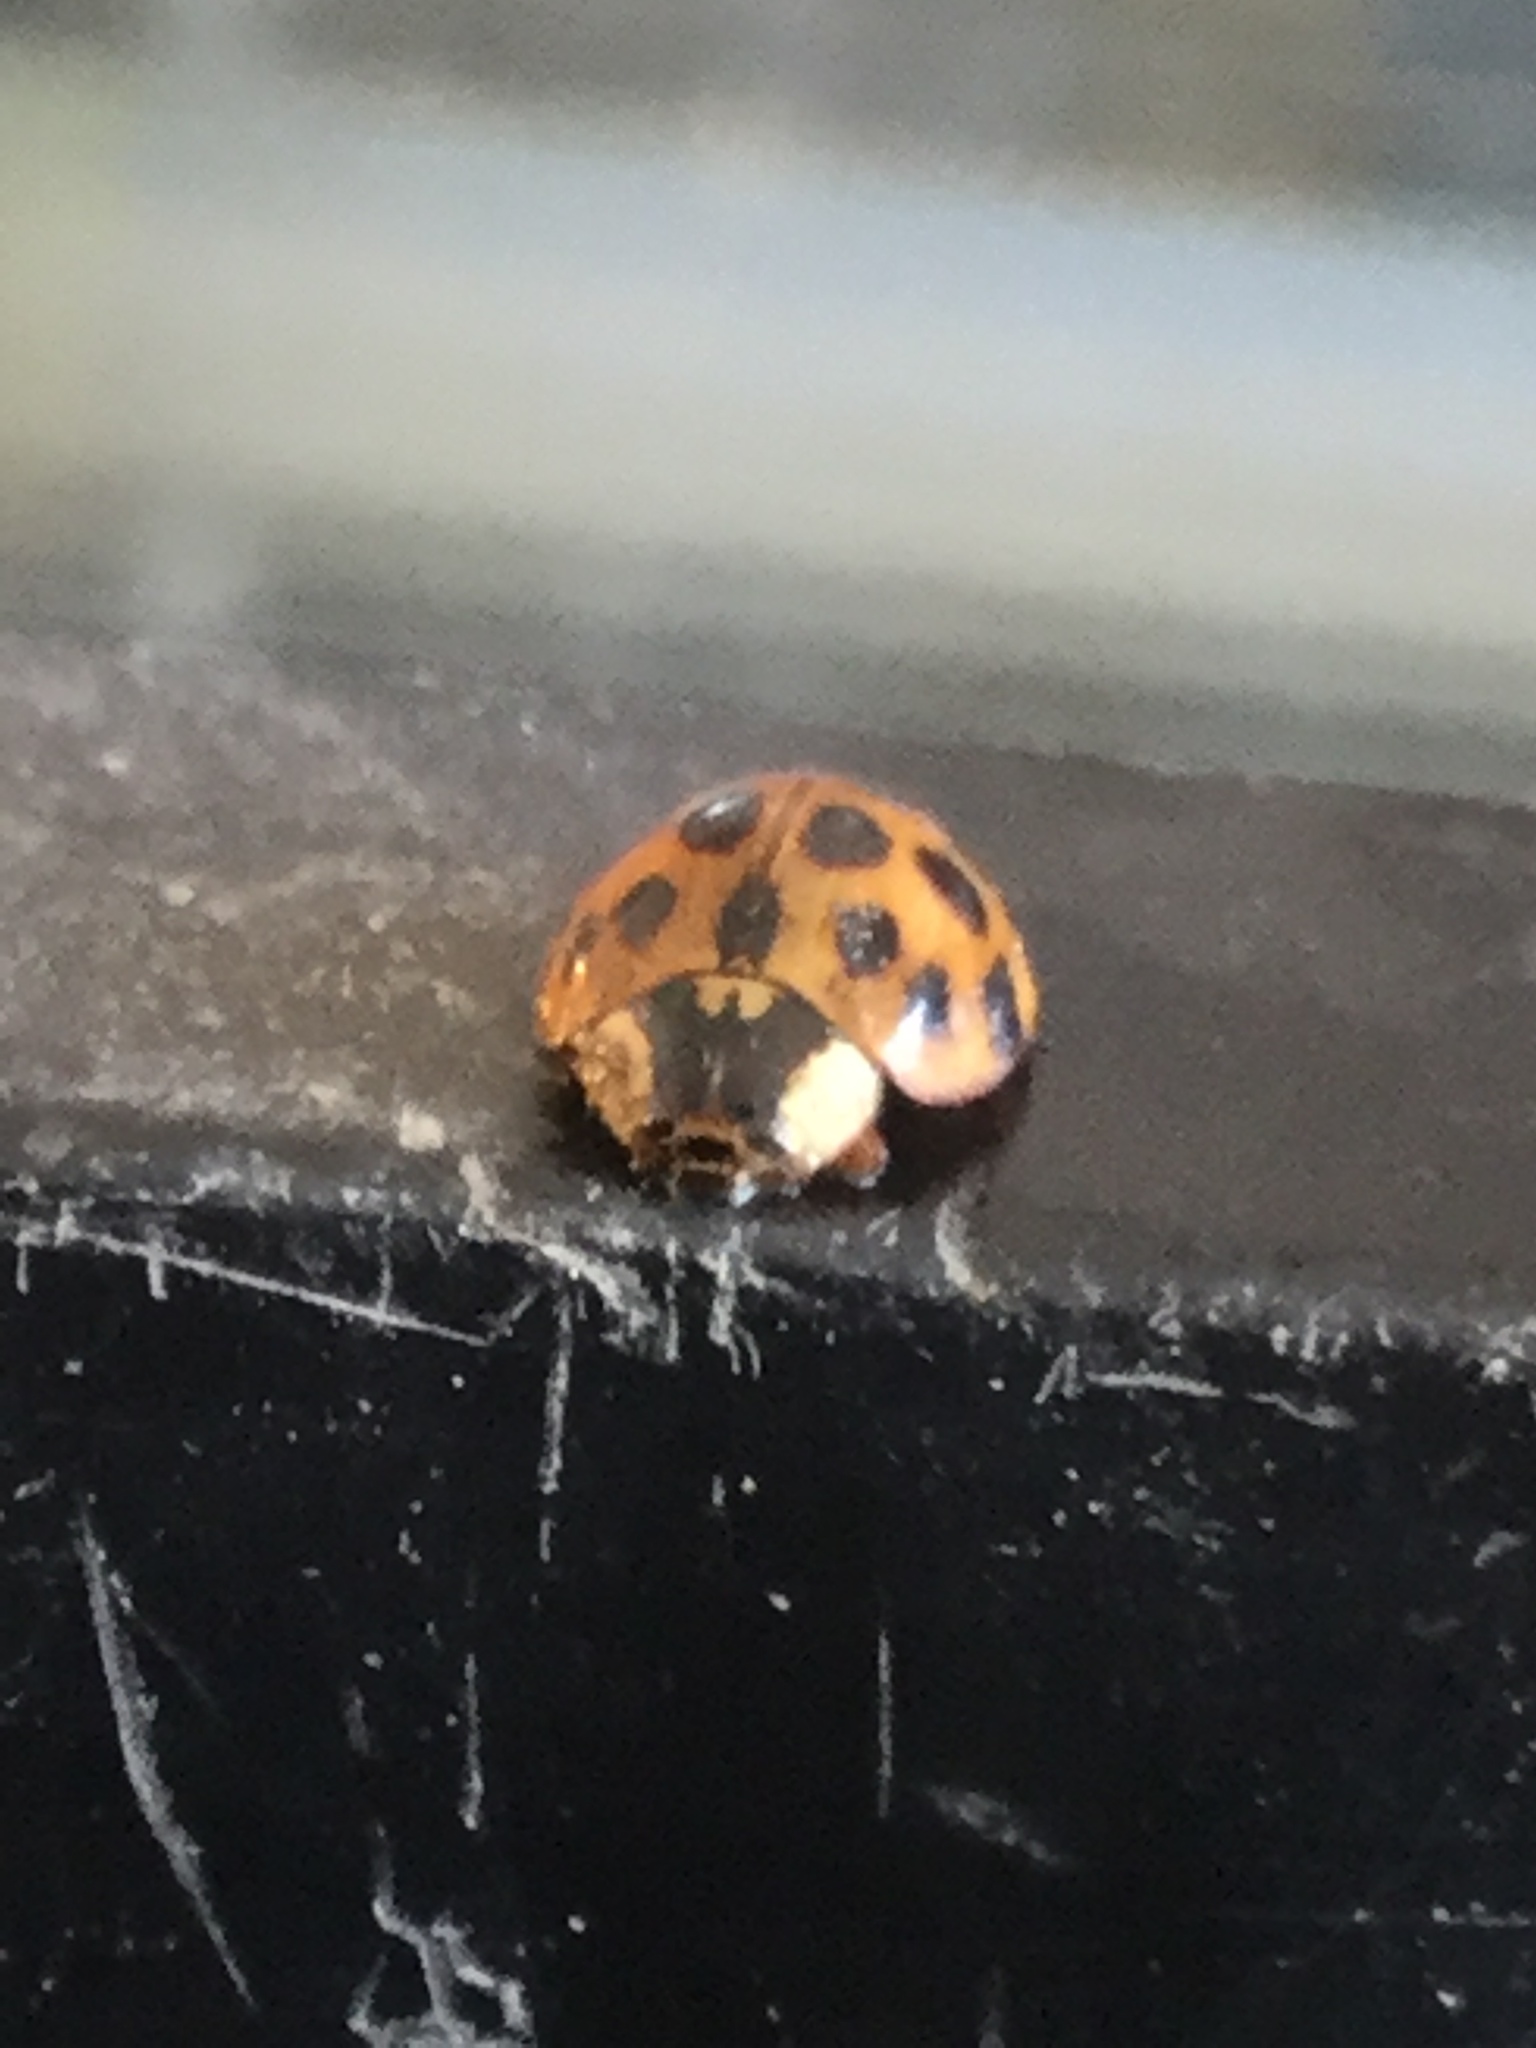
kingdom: Animalia
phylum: Arthropoda
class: Insecta
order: Coleoptera
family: Coccinellidae
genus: Harmonia
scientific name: Harmonia axyridis
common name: Harlequin ladybird
